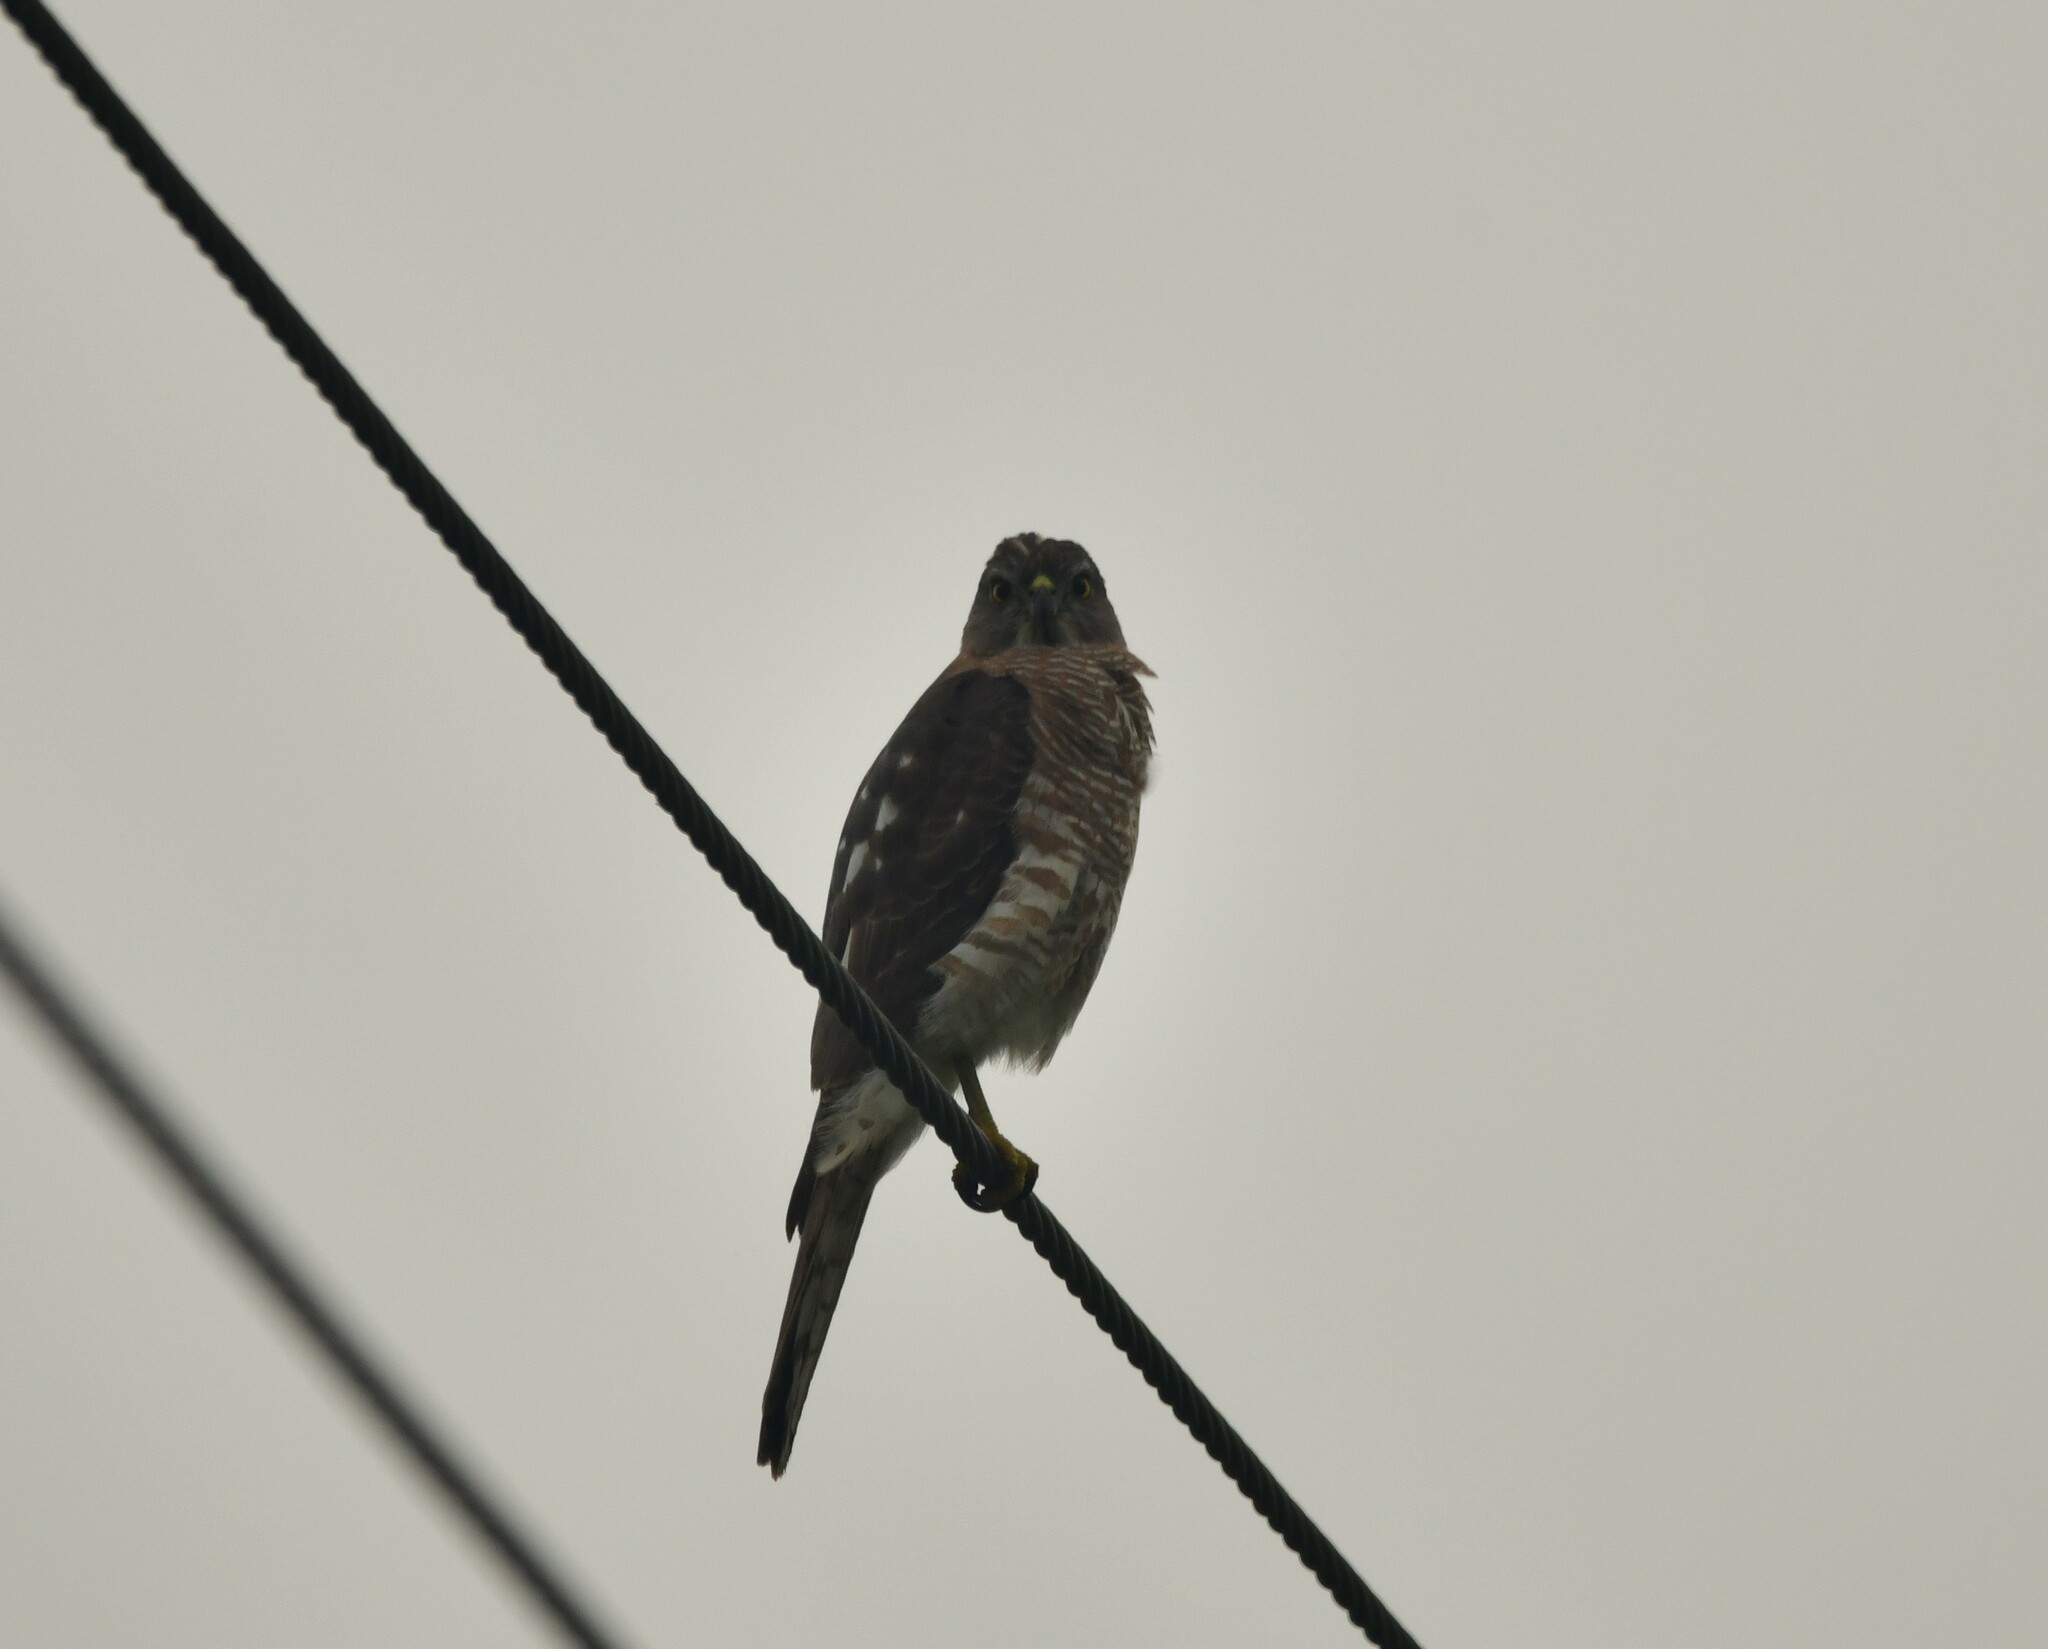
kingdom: Animalia
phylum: Chordata
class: Aves
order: Accipitriformes
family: Accipitridae
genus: Accipiter
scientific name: Accipiter badius
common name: Shikra
